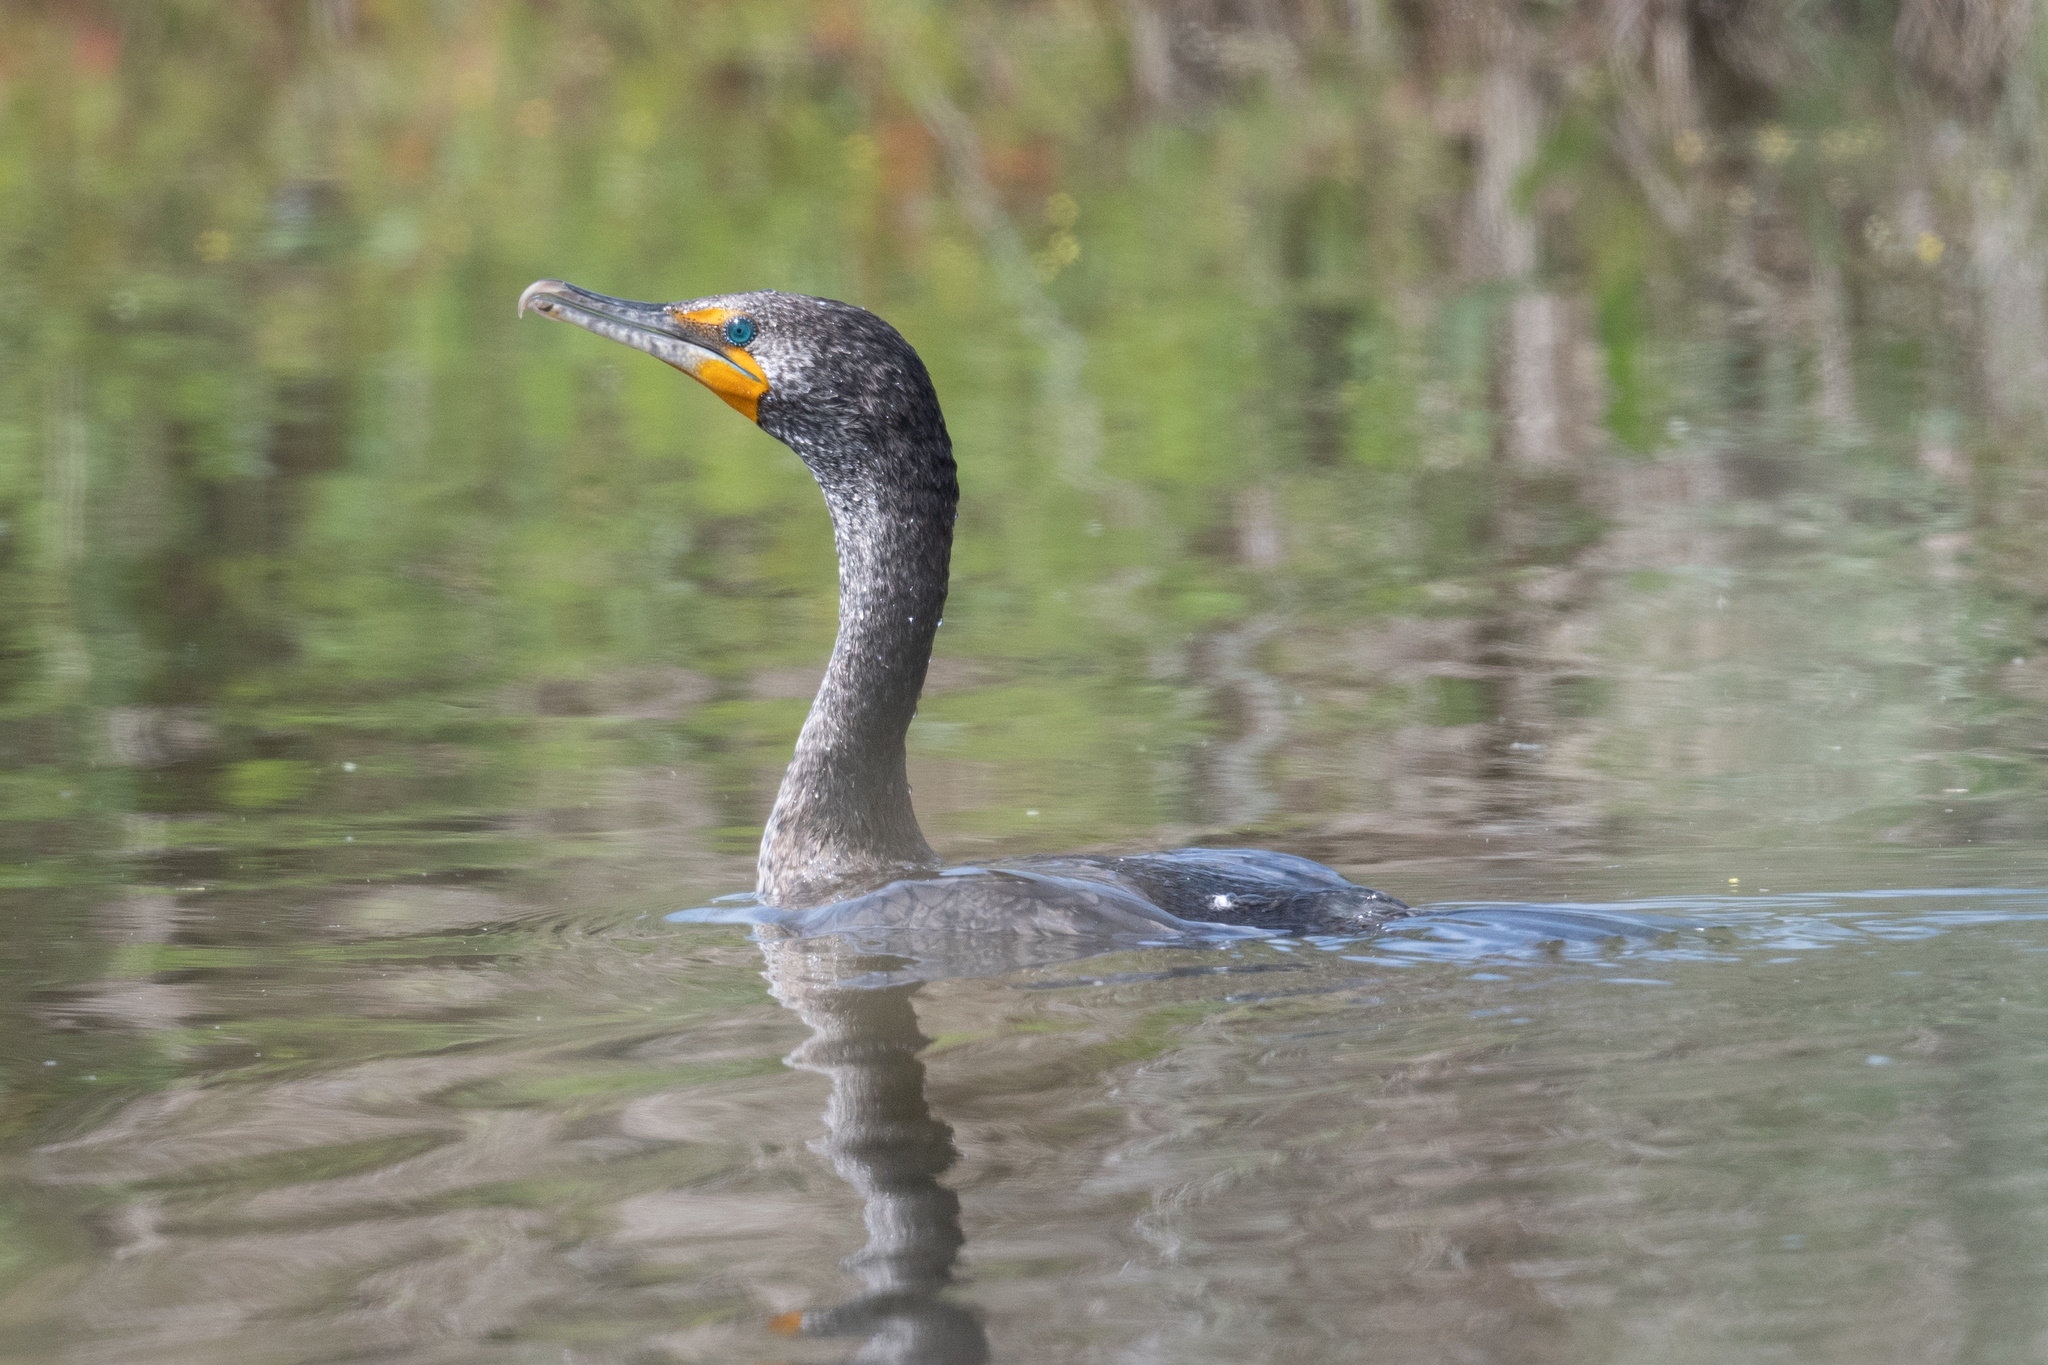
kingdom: Animalia
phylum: Chordata
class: Aves
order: Suliformes
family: Phalacrocoracidae
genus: Phalacrocorax
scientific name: Phalacrocorax auritus
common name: Double-crested cormorant
